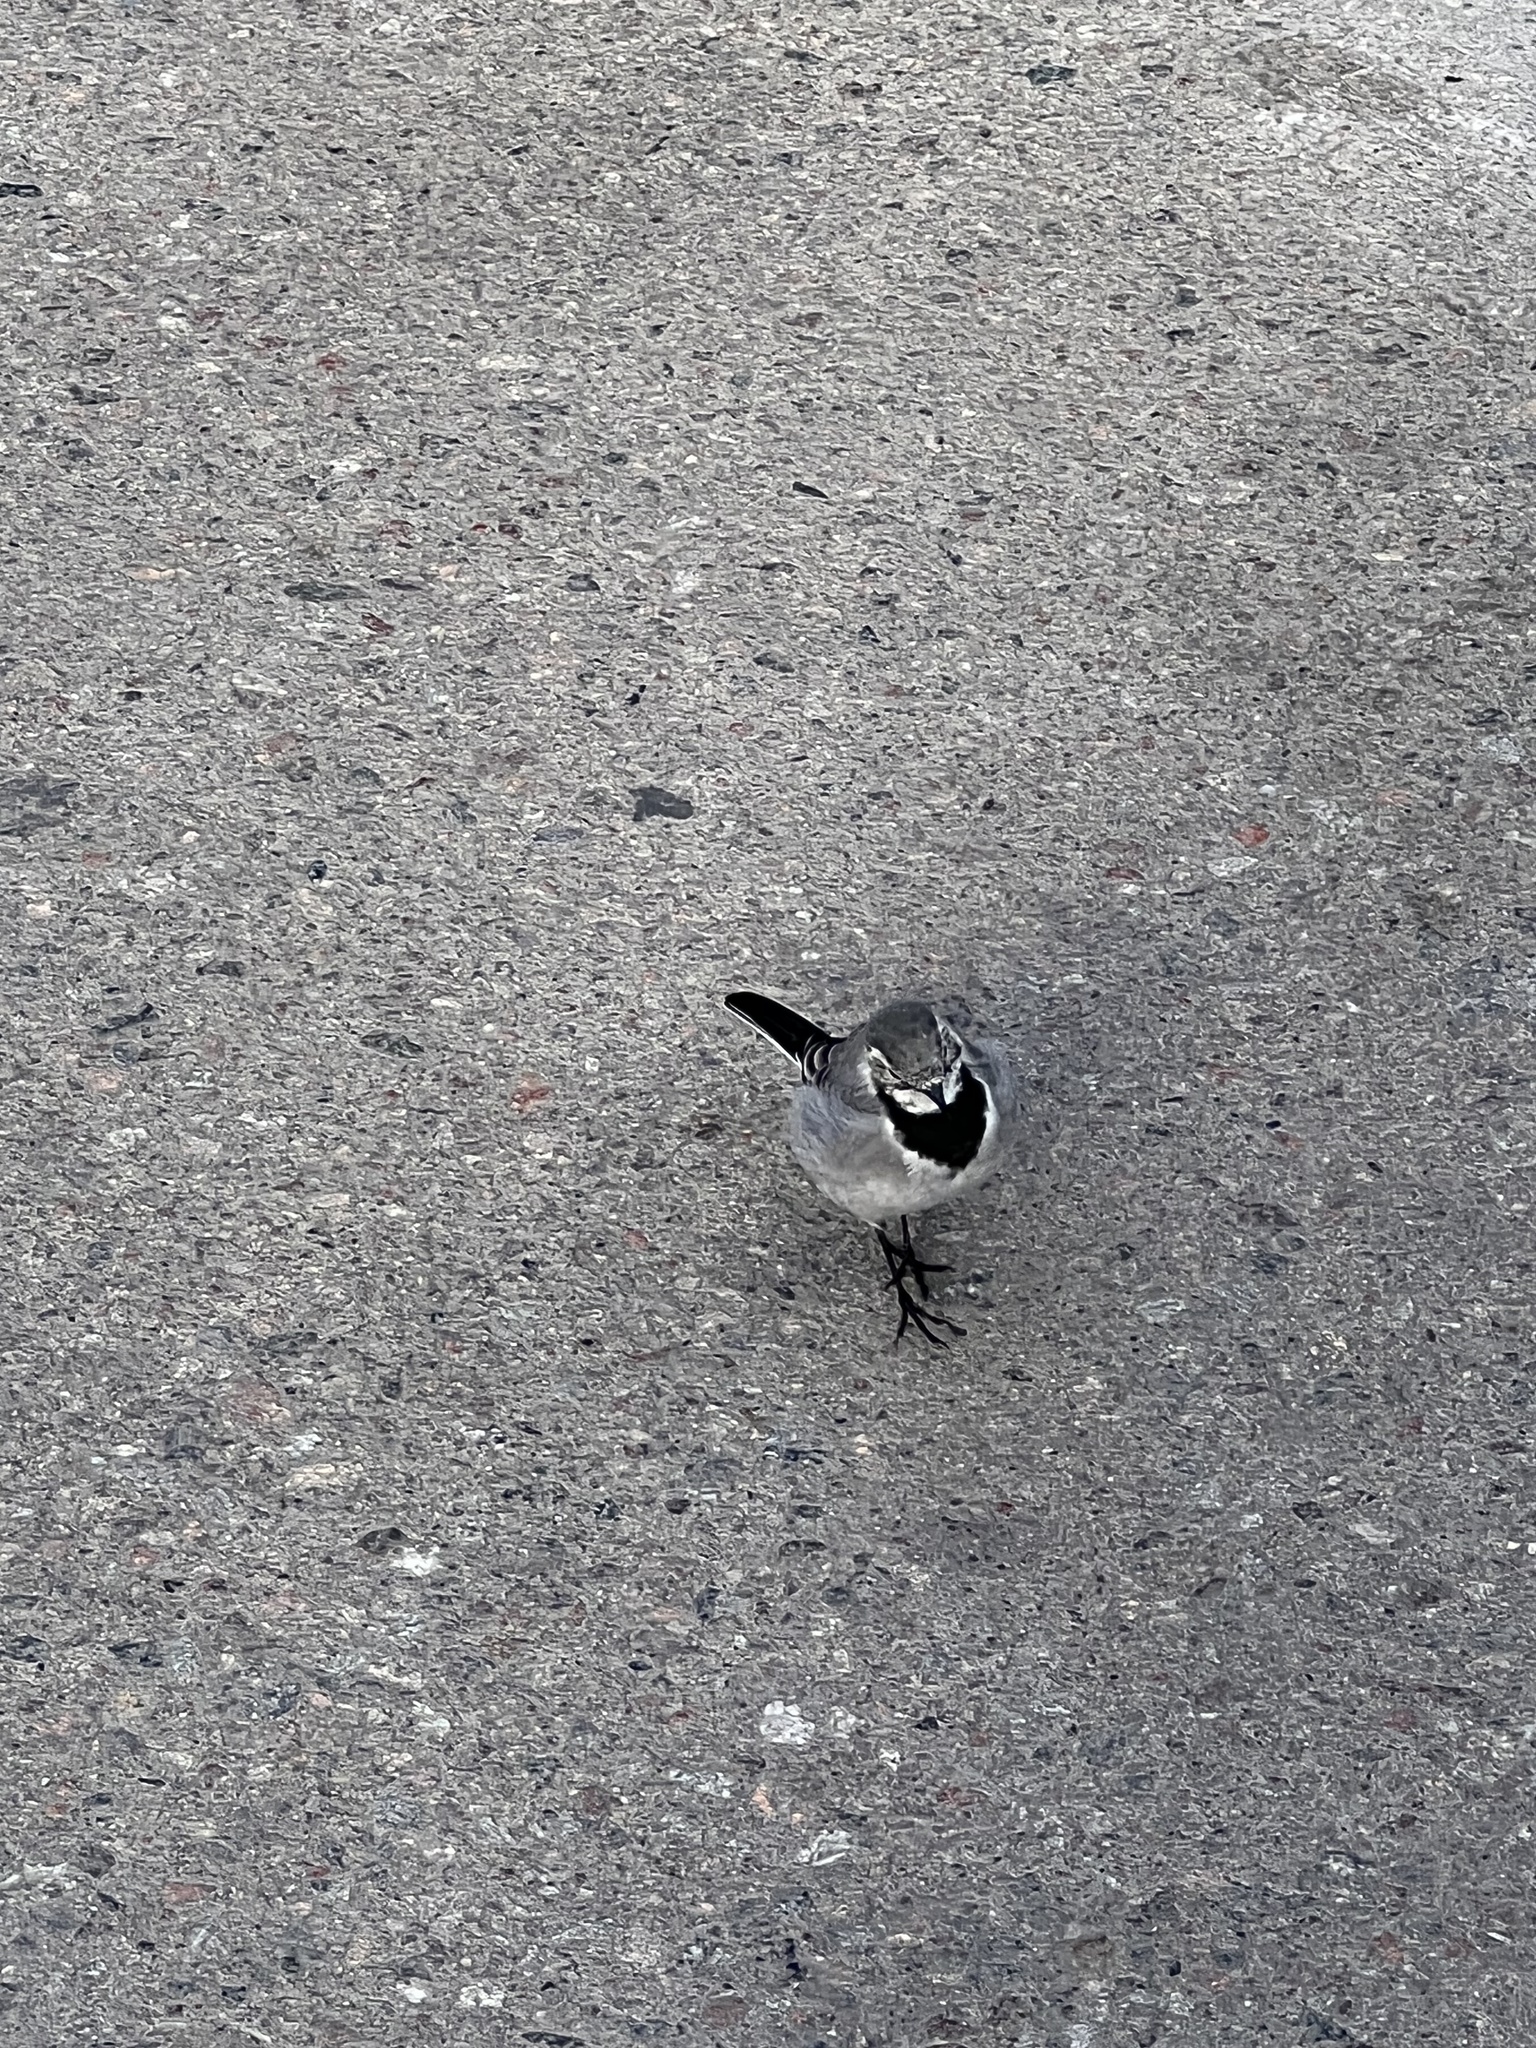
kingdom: Animalia
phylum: Chordata
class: Aves
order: Passeriformes
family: Motacillidae
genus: Motacilla
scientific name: Motacilla alba
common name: White wagtail
